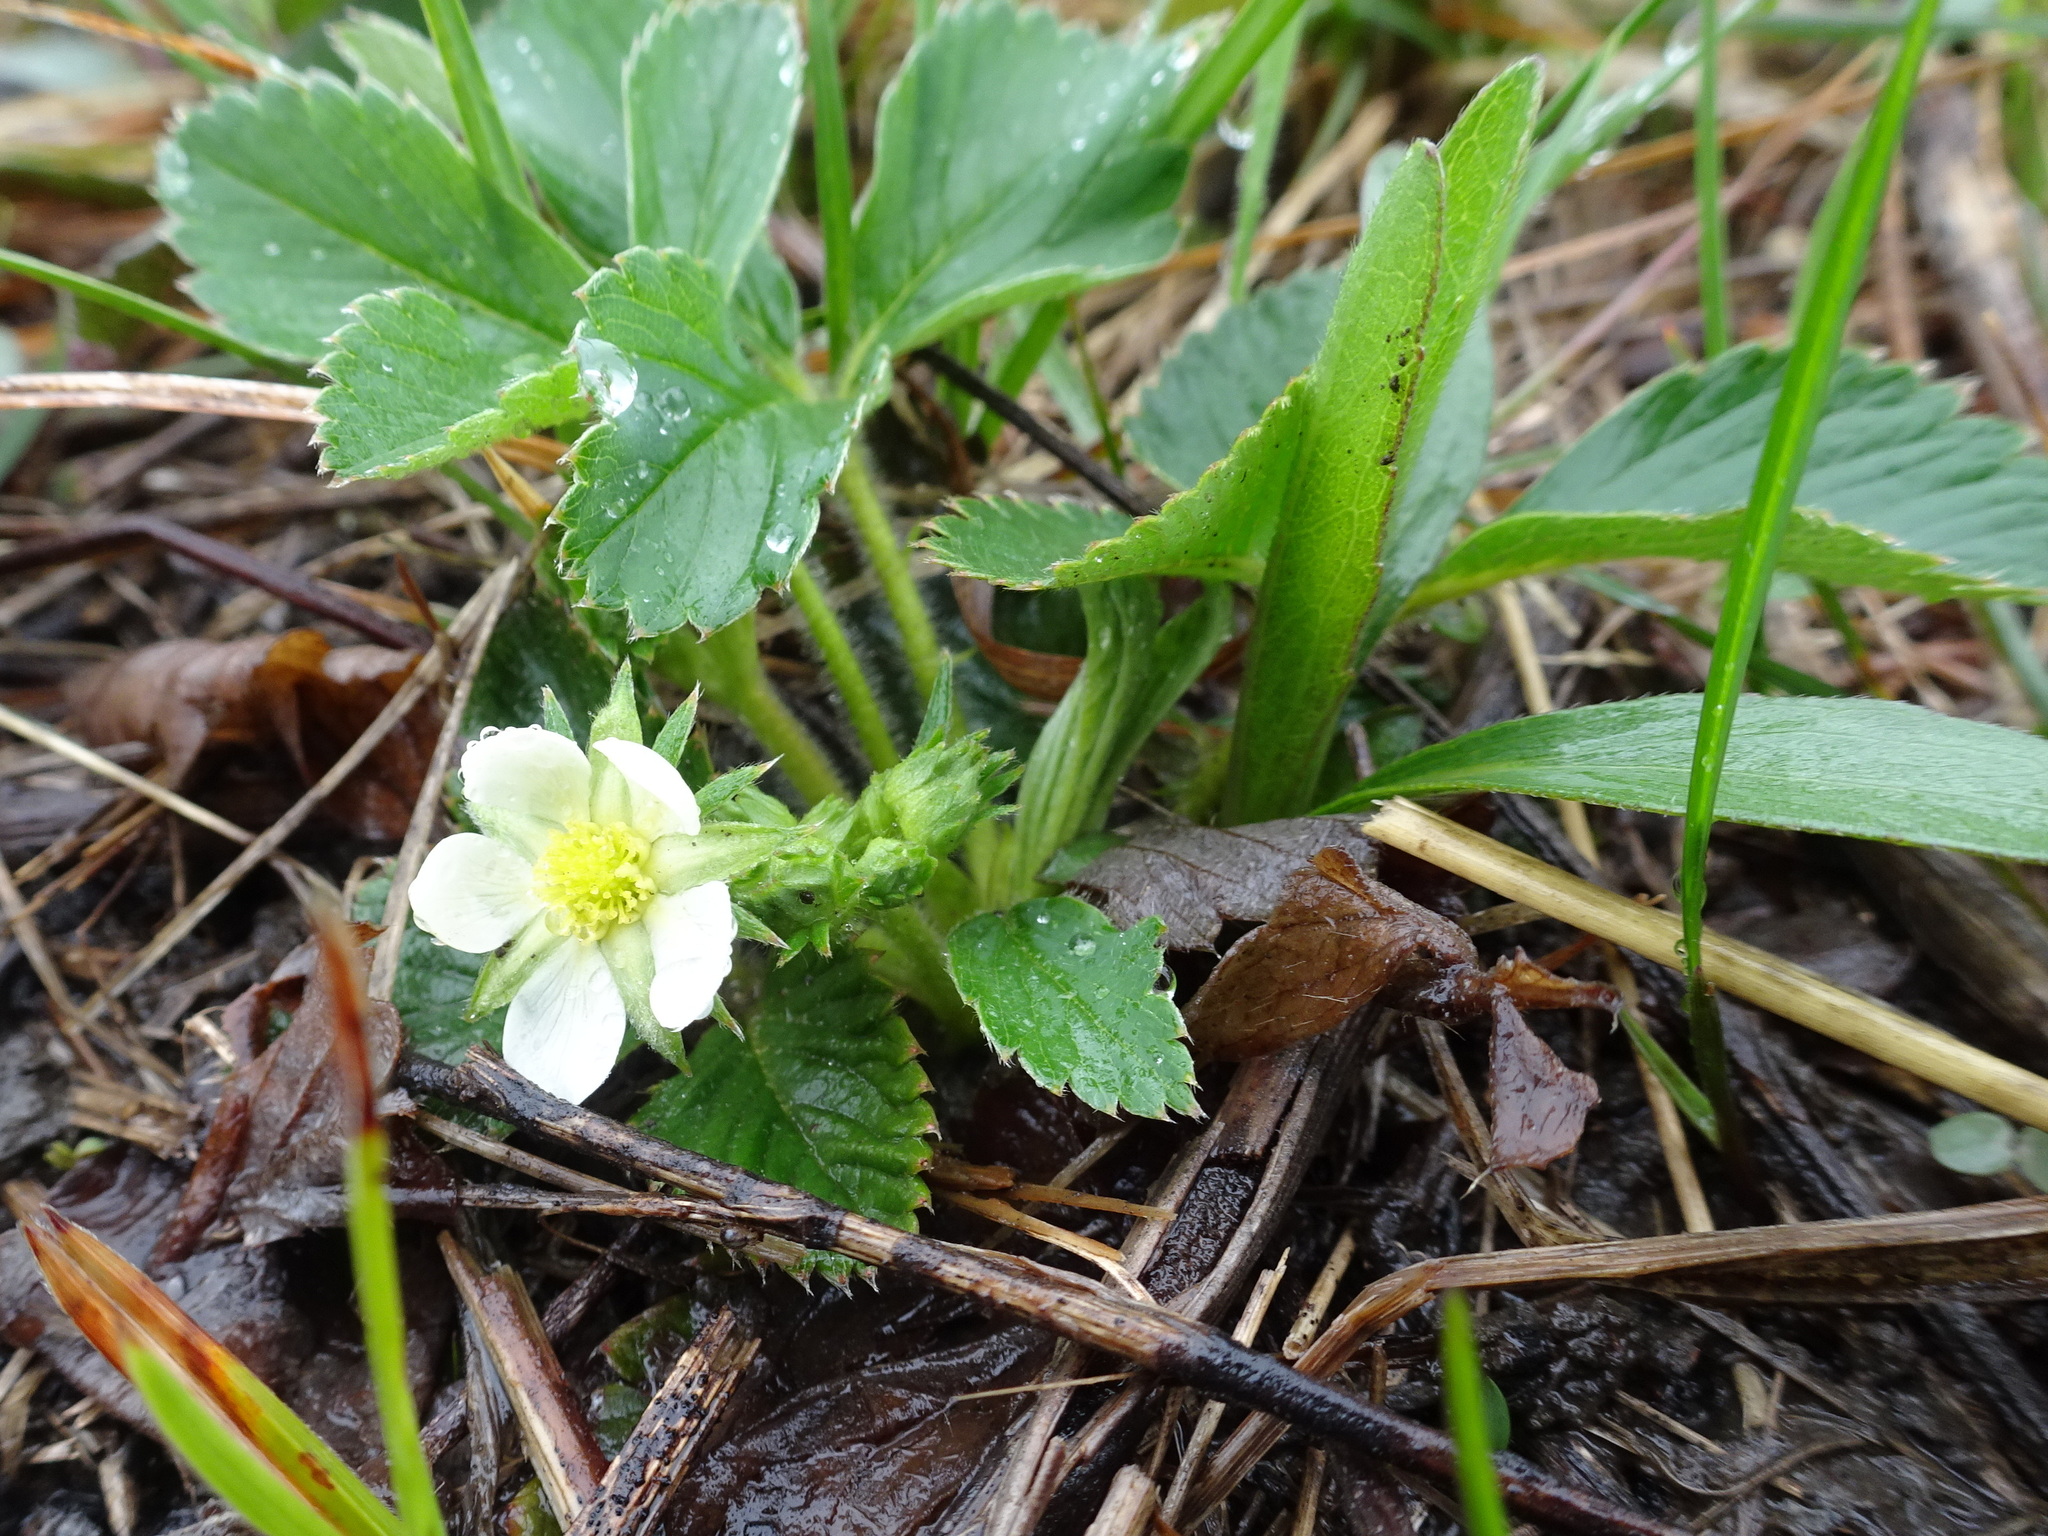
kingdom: Plantae
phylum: Tracheophyta
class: Magnoliopsida
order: Rosales
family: Rosaceae
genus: Fragaria
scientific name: Fragaria virginiana
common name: Thickleaved wild strawberry
